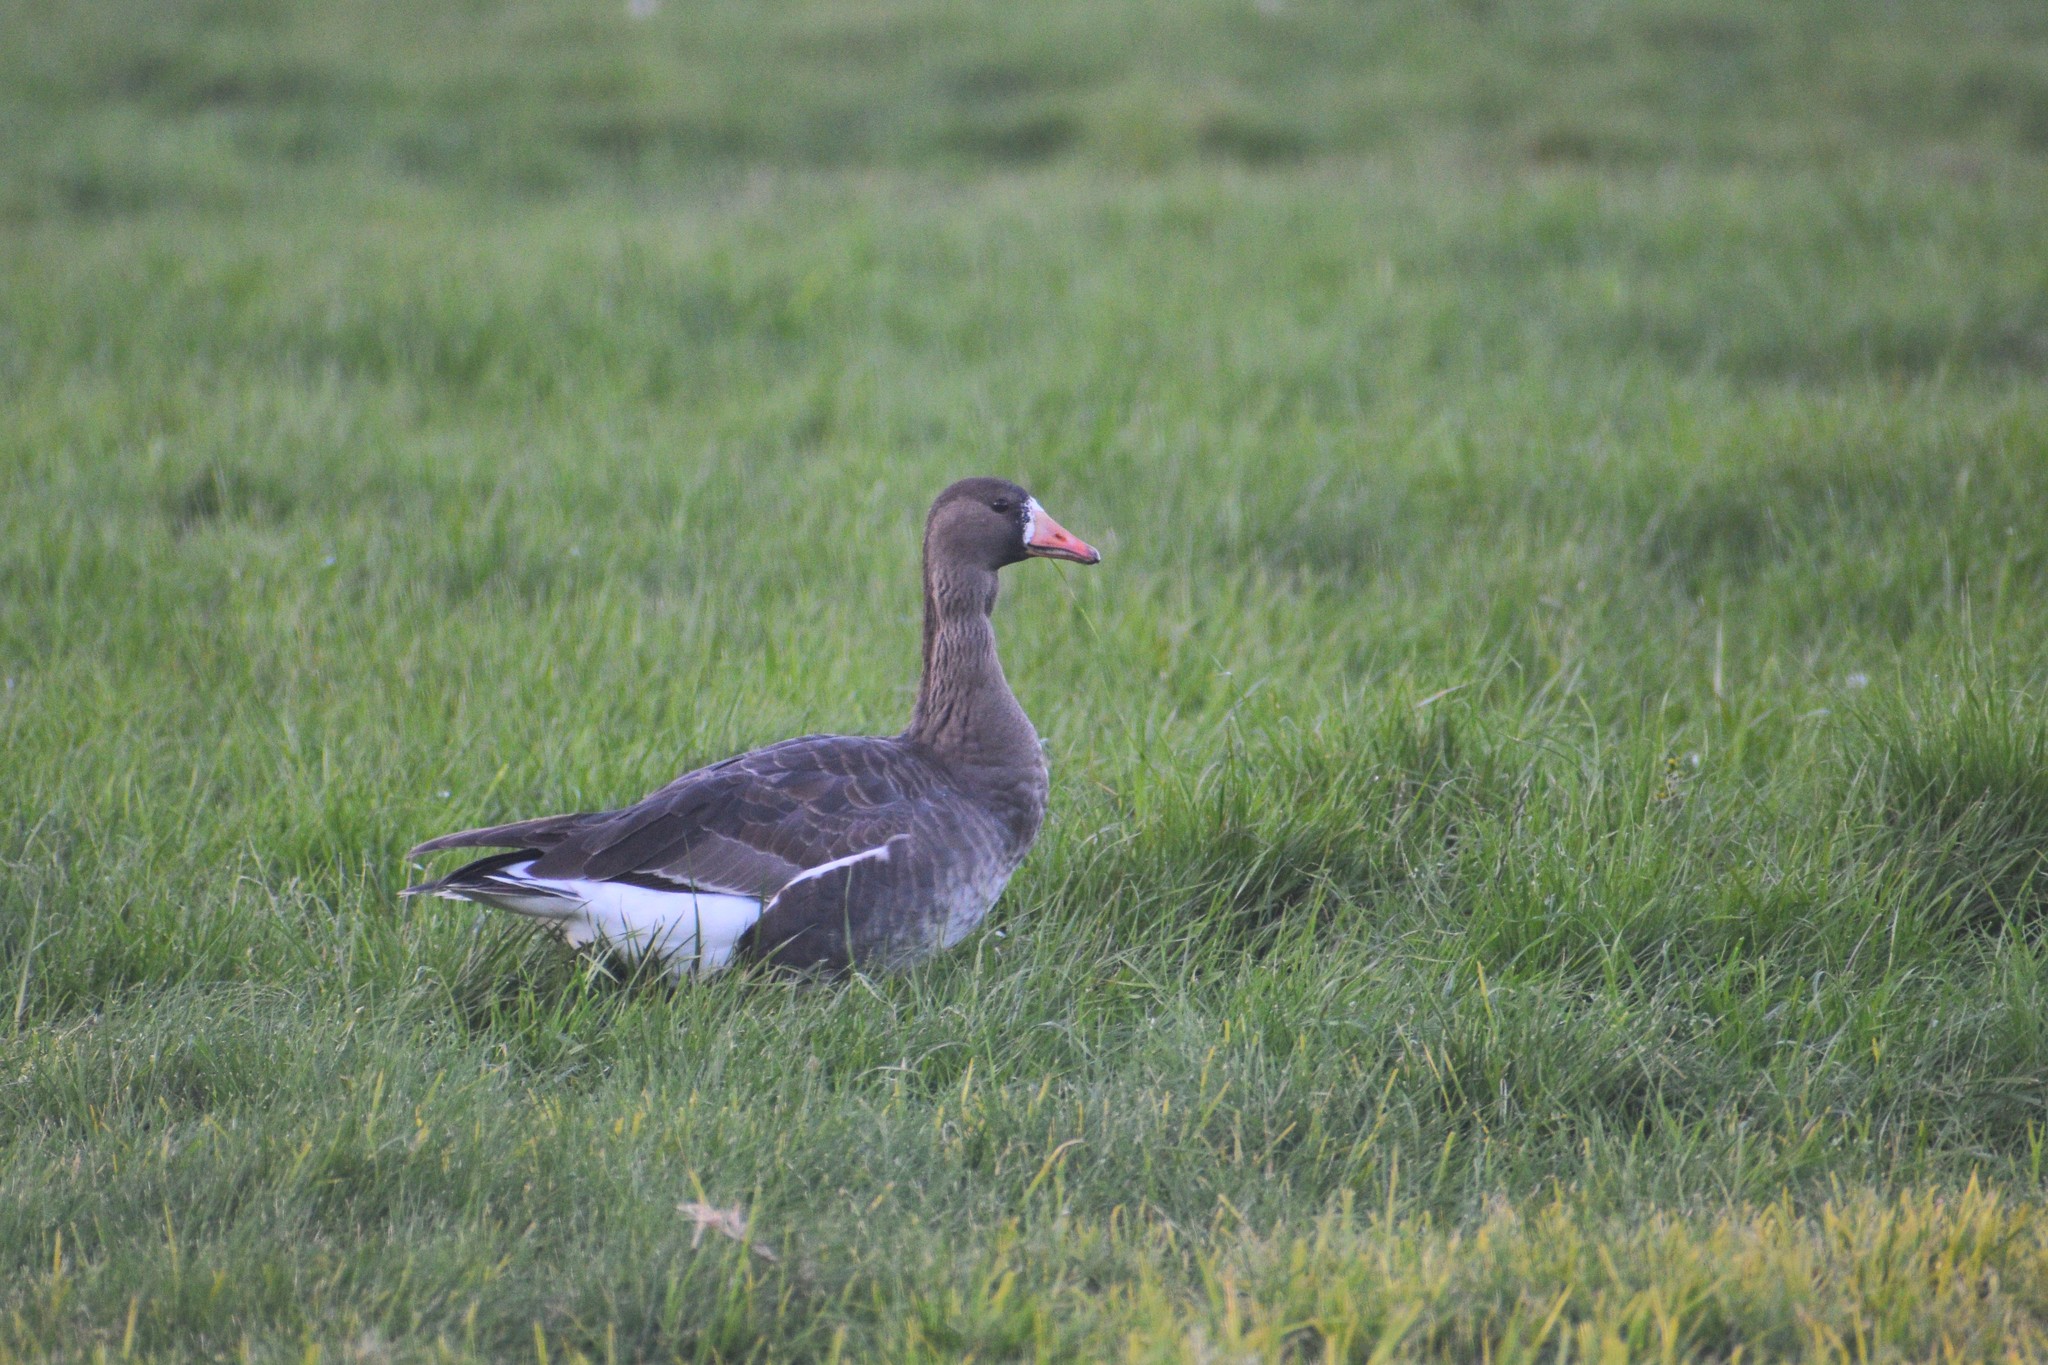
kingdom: Animalia
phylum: Chordata
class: Aves
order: Anseriformes
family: Anatidae
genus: Anser
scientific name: Anser albifrons
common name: Greater white-fronted goose
